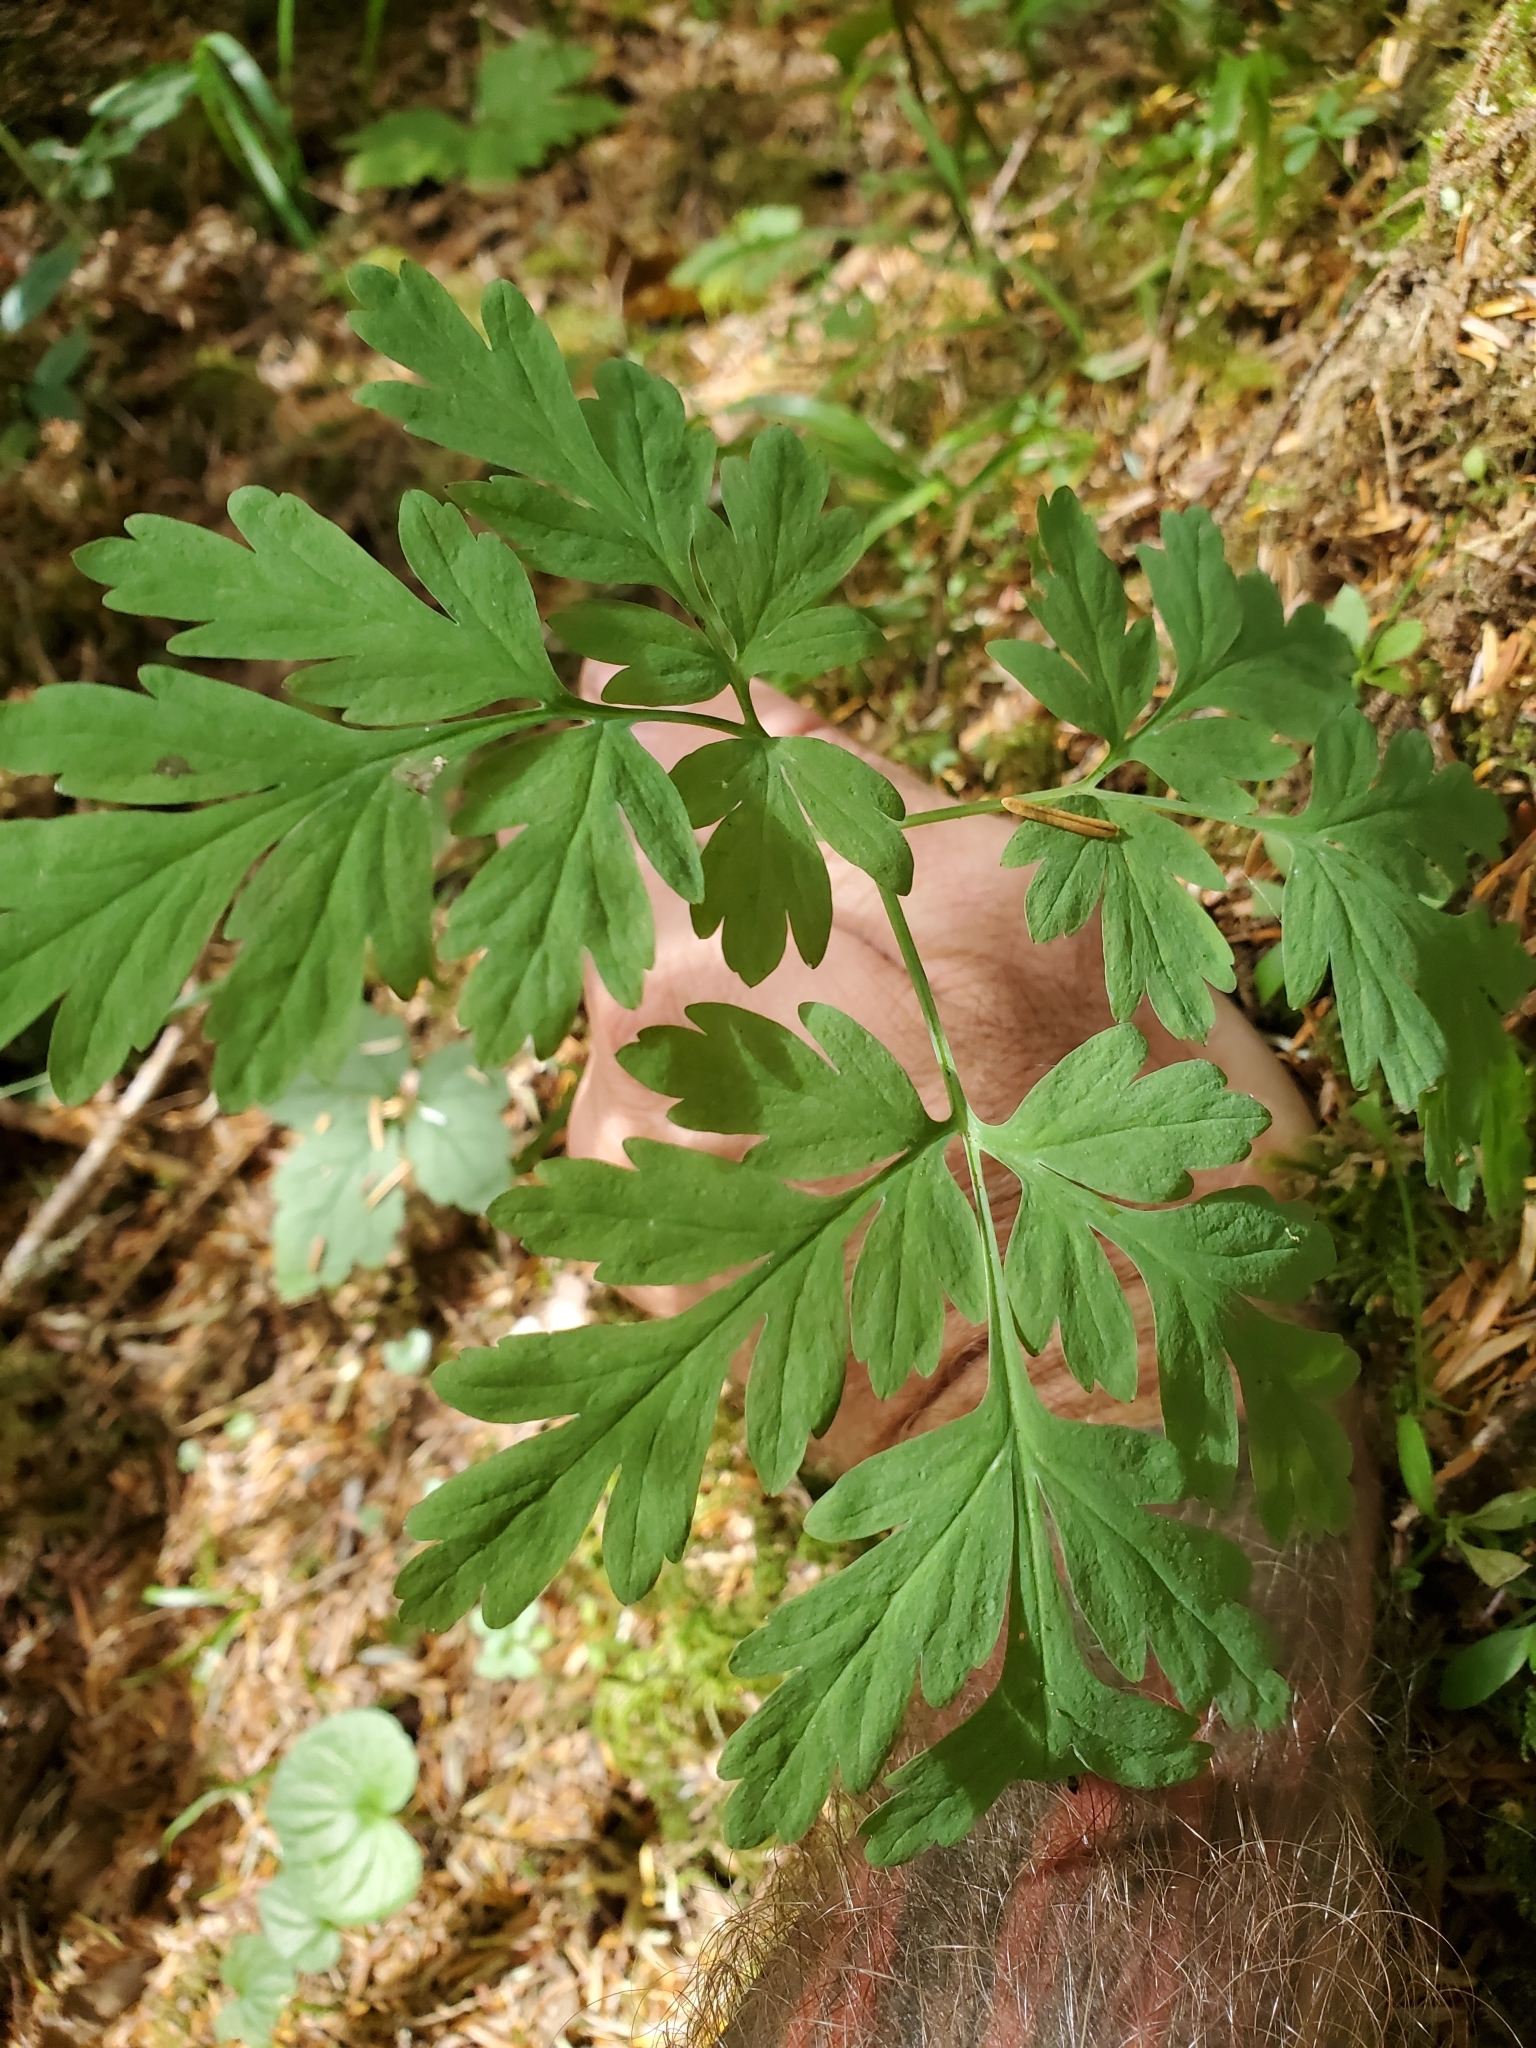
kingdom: Plantae
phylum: Tracheophyta
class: Magnoliopsida
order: Ranunculales
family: Papaveraceae
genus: Dicentra
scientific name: Dicentra formosa
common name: Bleeding-heart
